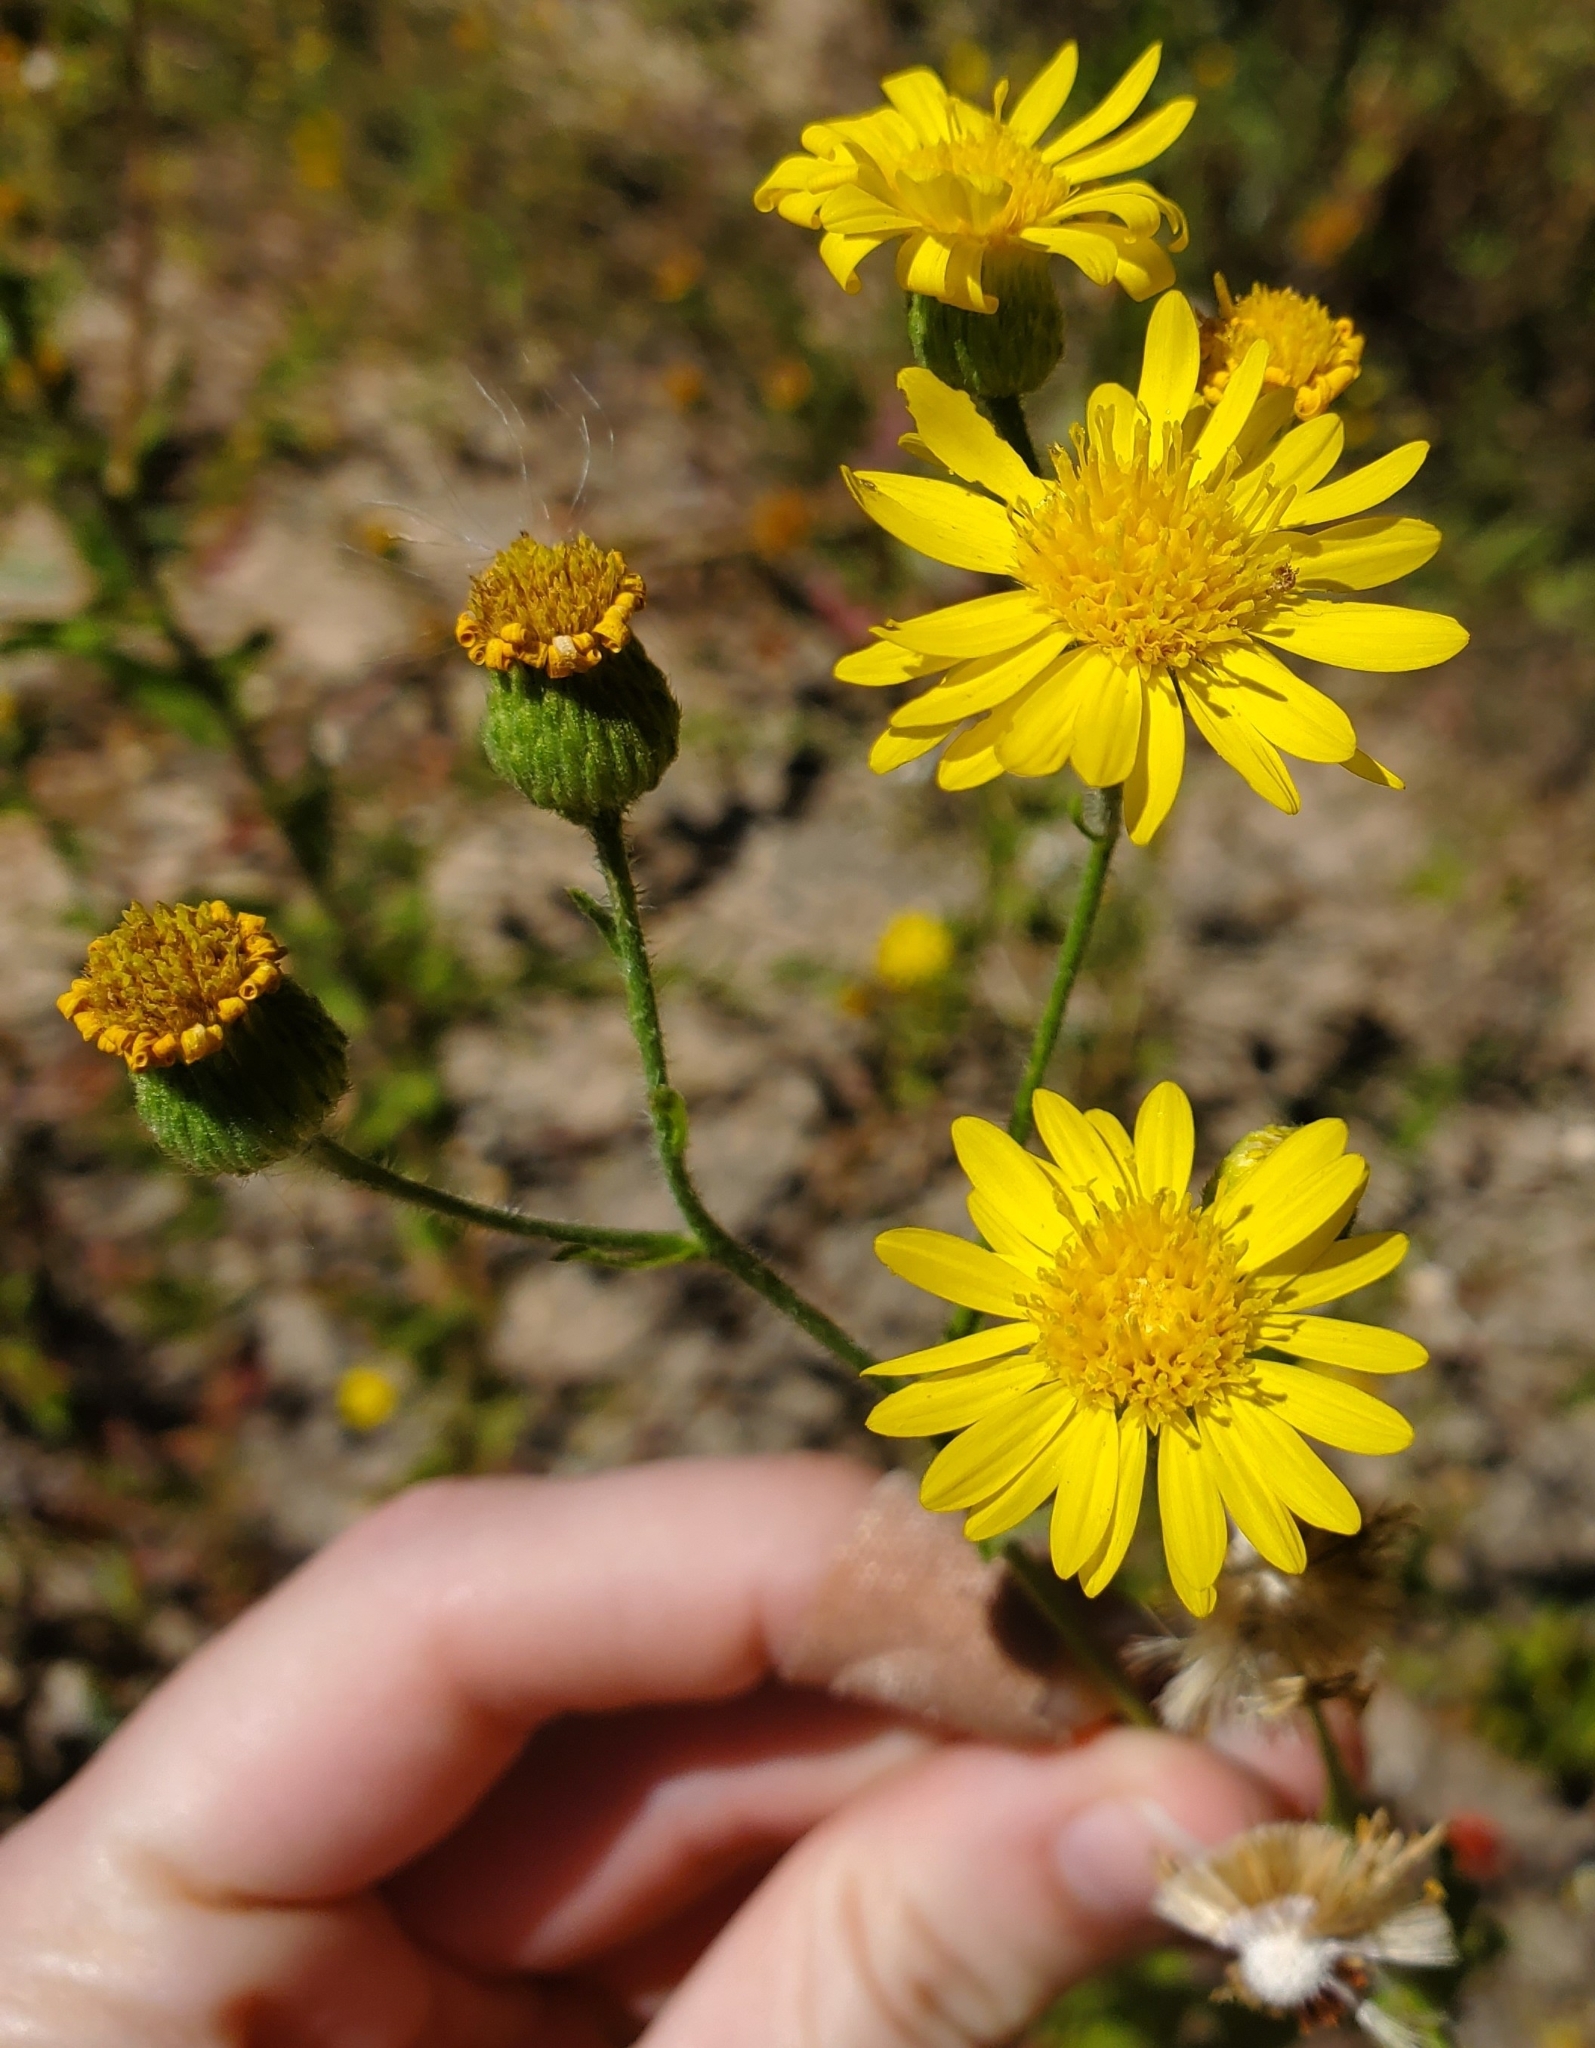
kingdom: Plantae
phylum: Tracheophyta
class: Magnoliopsida
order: Asterales
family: Asteraceae
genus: Heterotheca
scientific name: Heterotheca subaxillaris
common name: Camphorweed
